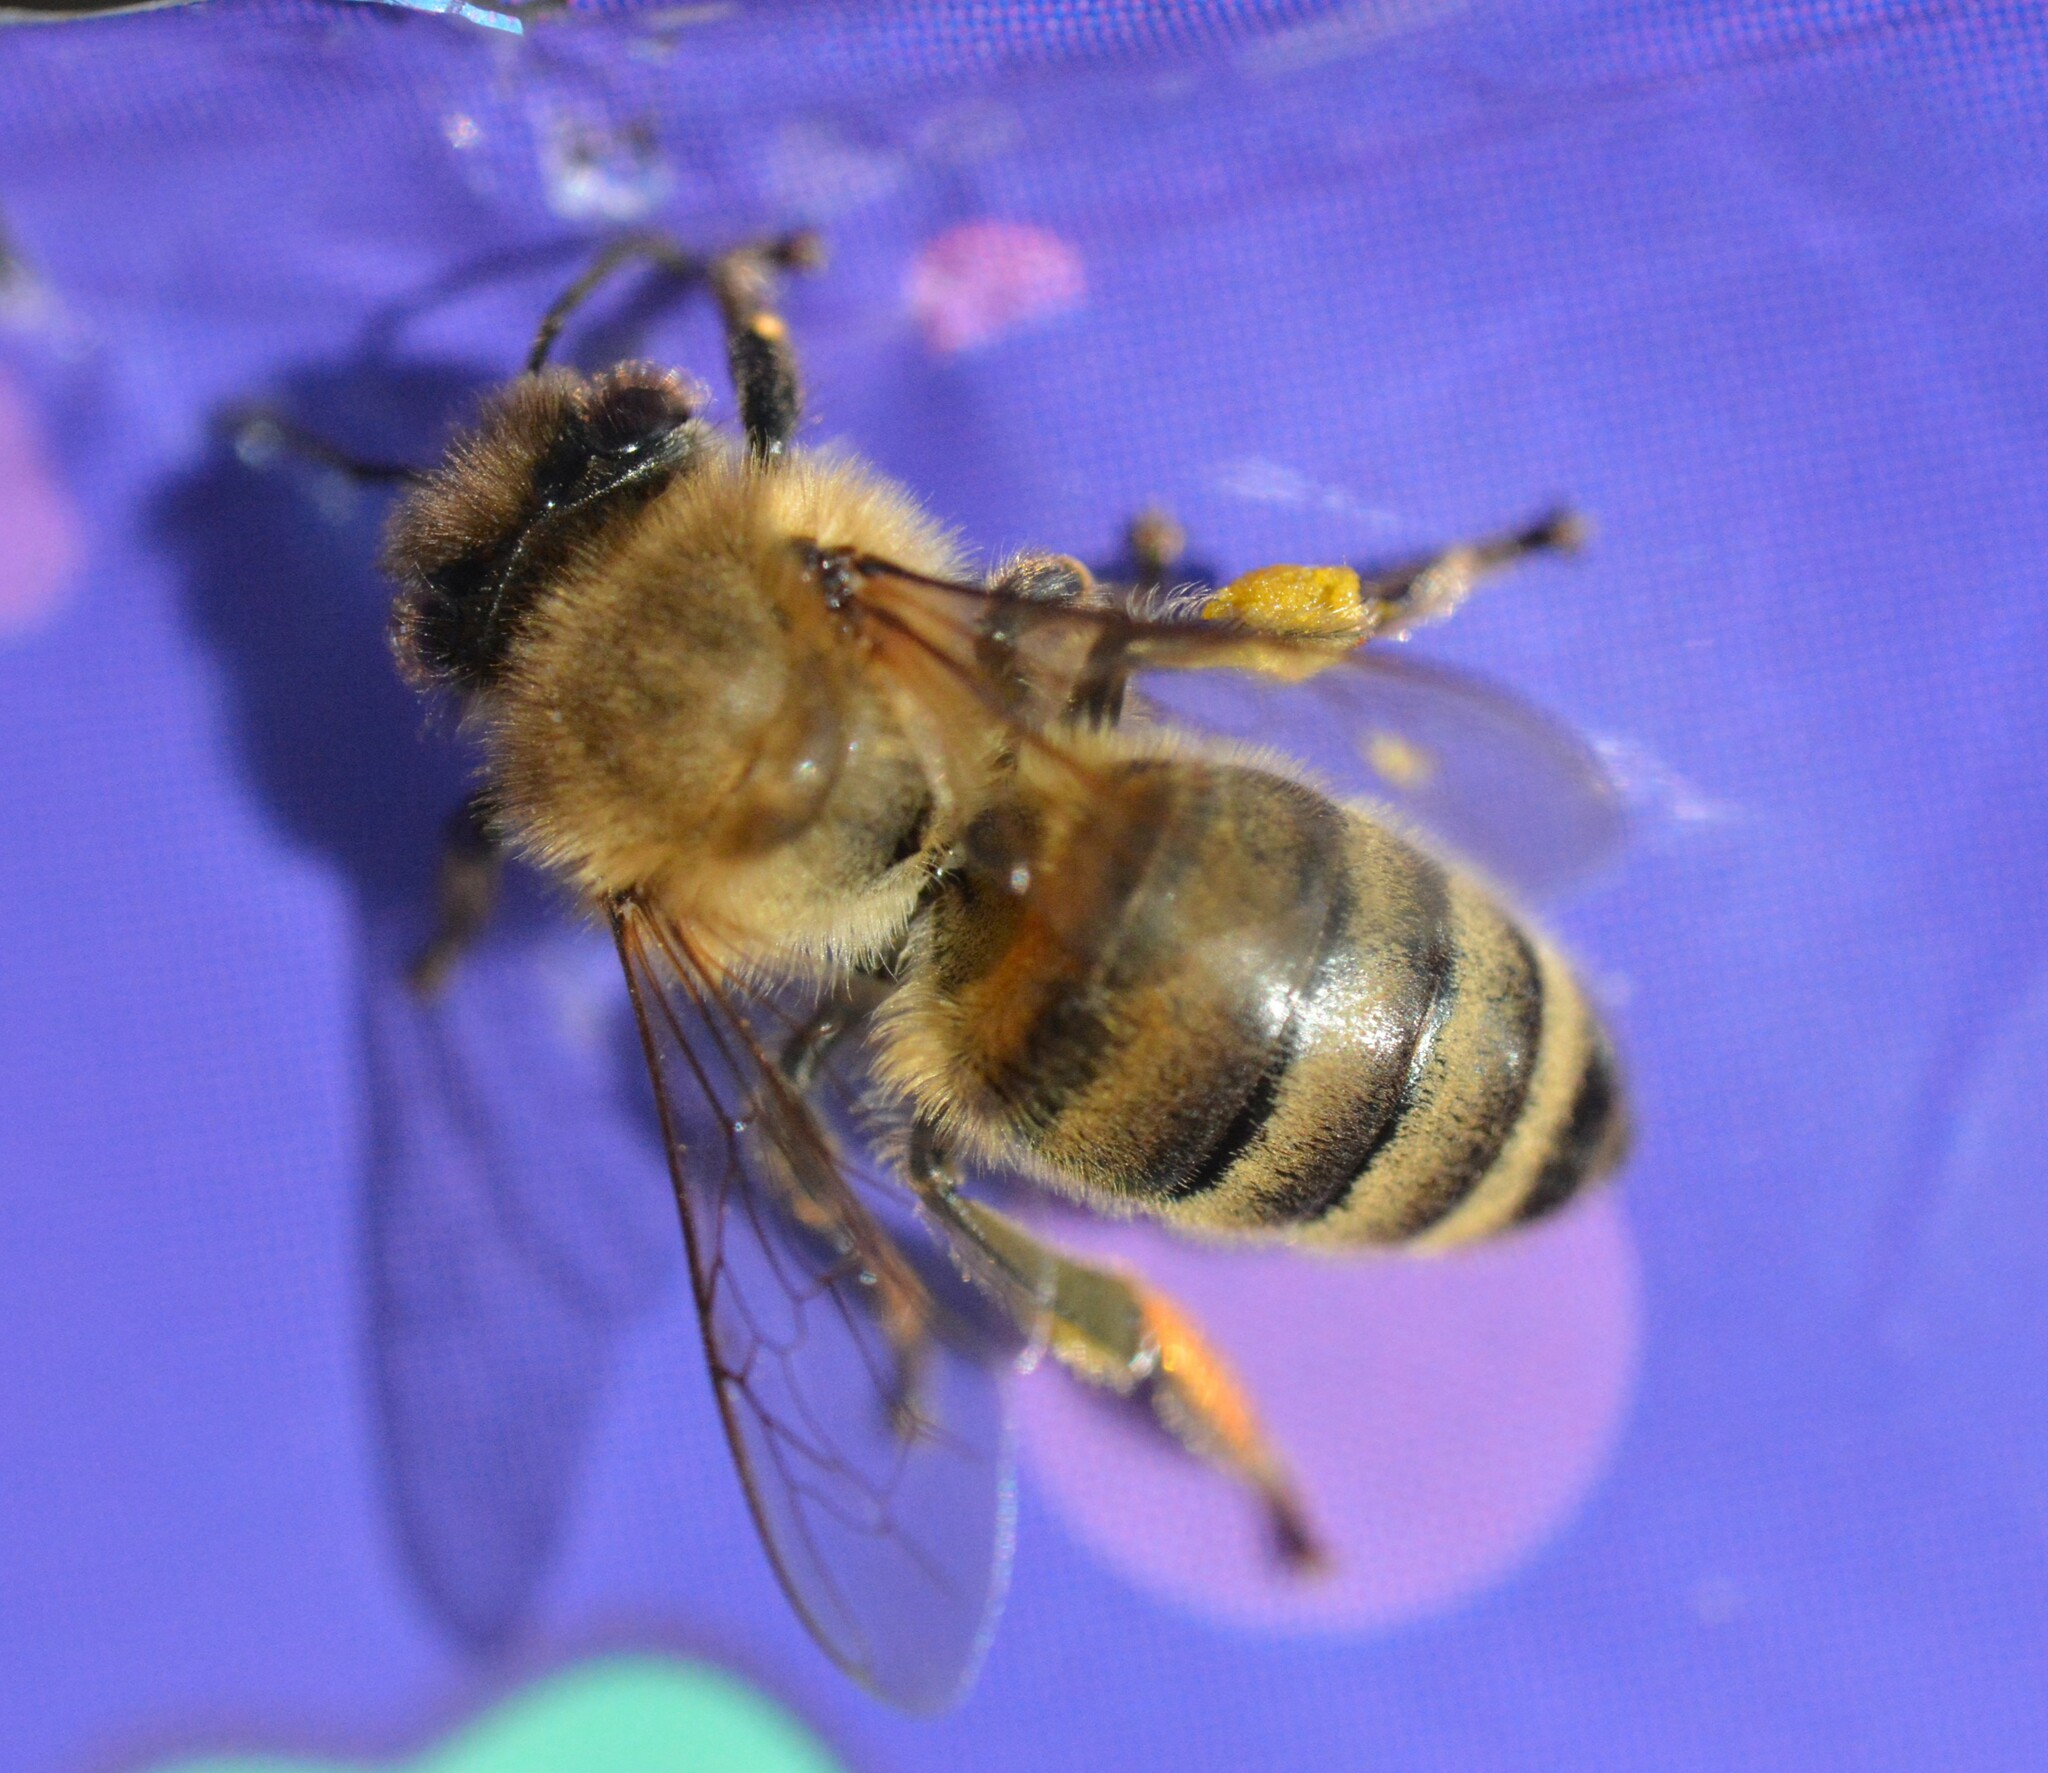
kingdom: Animalia
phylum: Arthropoda
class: Insecta
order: Hymenoptera
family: Apidae
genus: Apis
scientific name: Apis mellifera
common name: Honey bee
